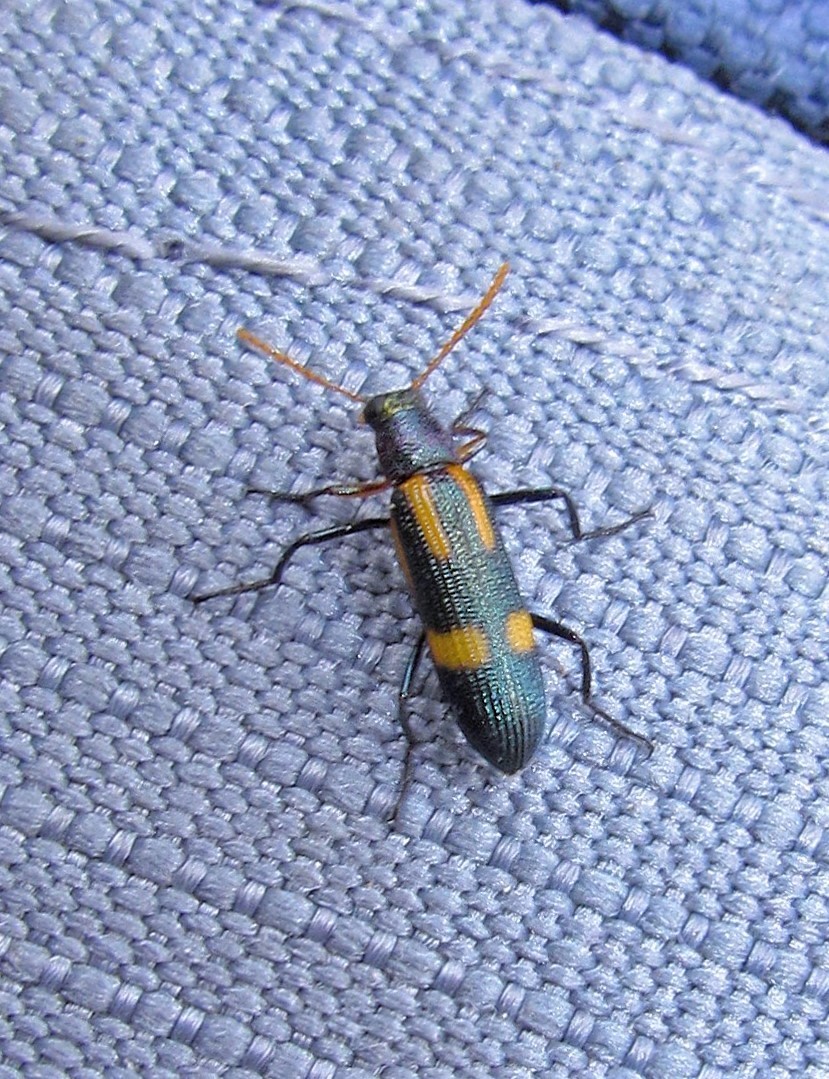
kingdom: Animalia
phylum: Arthropoda
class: Insecta
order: Coleoptera
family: Tenebrionidae
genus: Strongylium
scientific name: Strongylium
